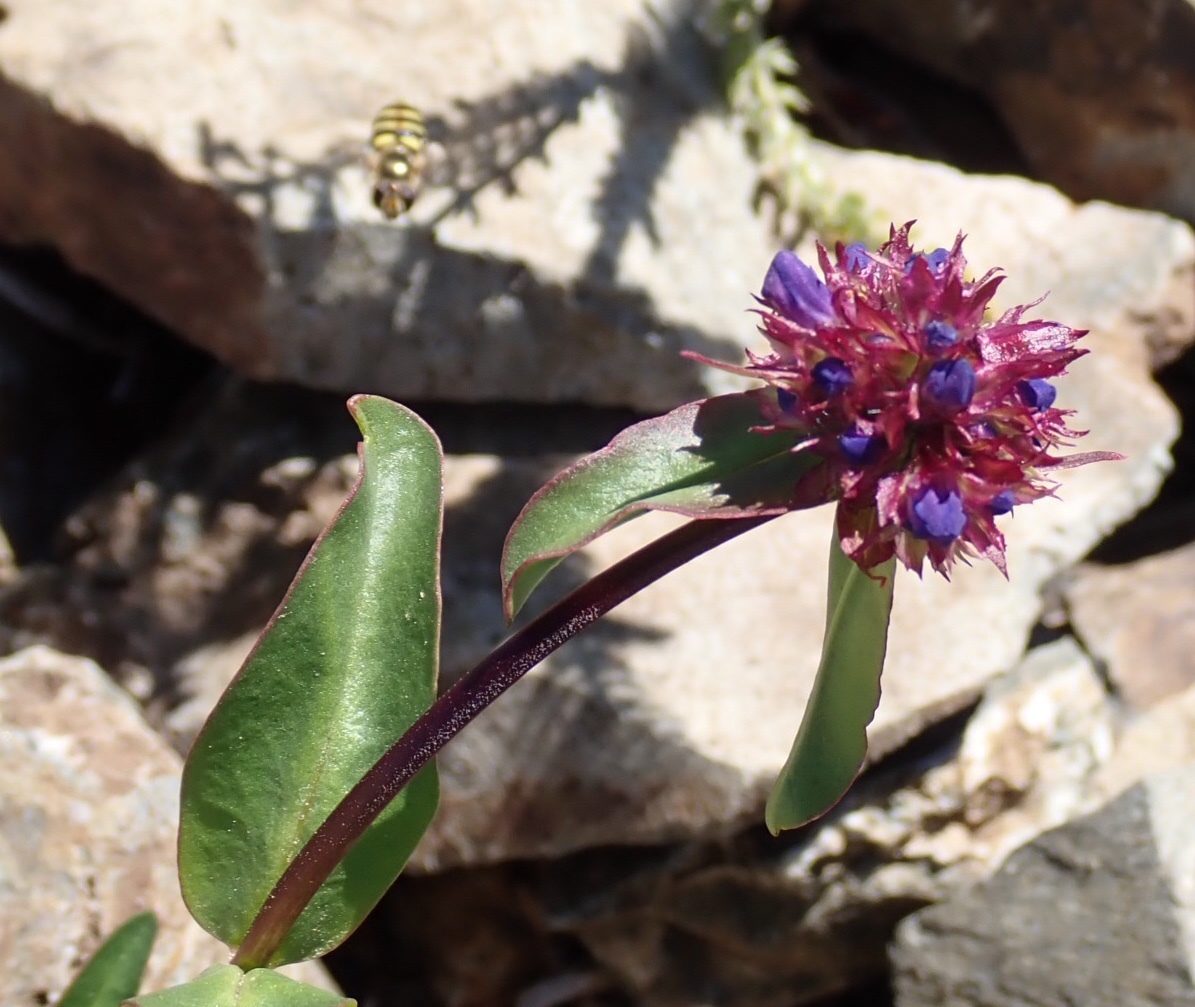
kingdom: Plantae
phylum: Tracheophyta
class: Magnoliopsida
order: Lamiales
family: Plantaginaceae
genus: Penstemon
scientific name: Penstemon procerus
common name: Small-flower penstemon
